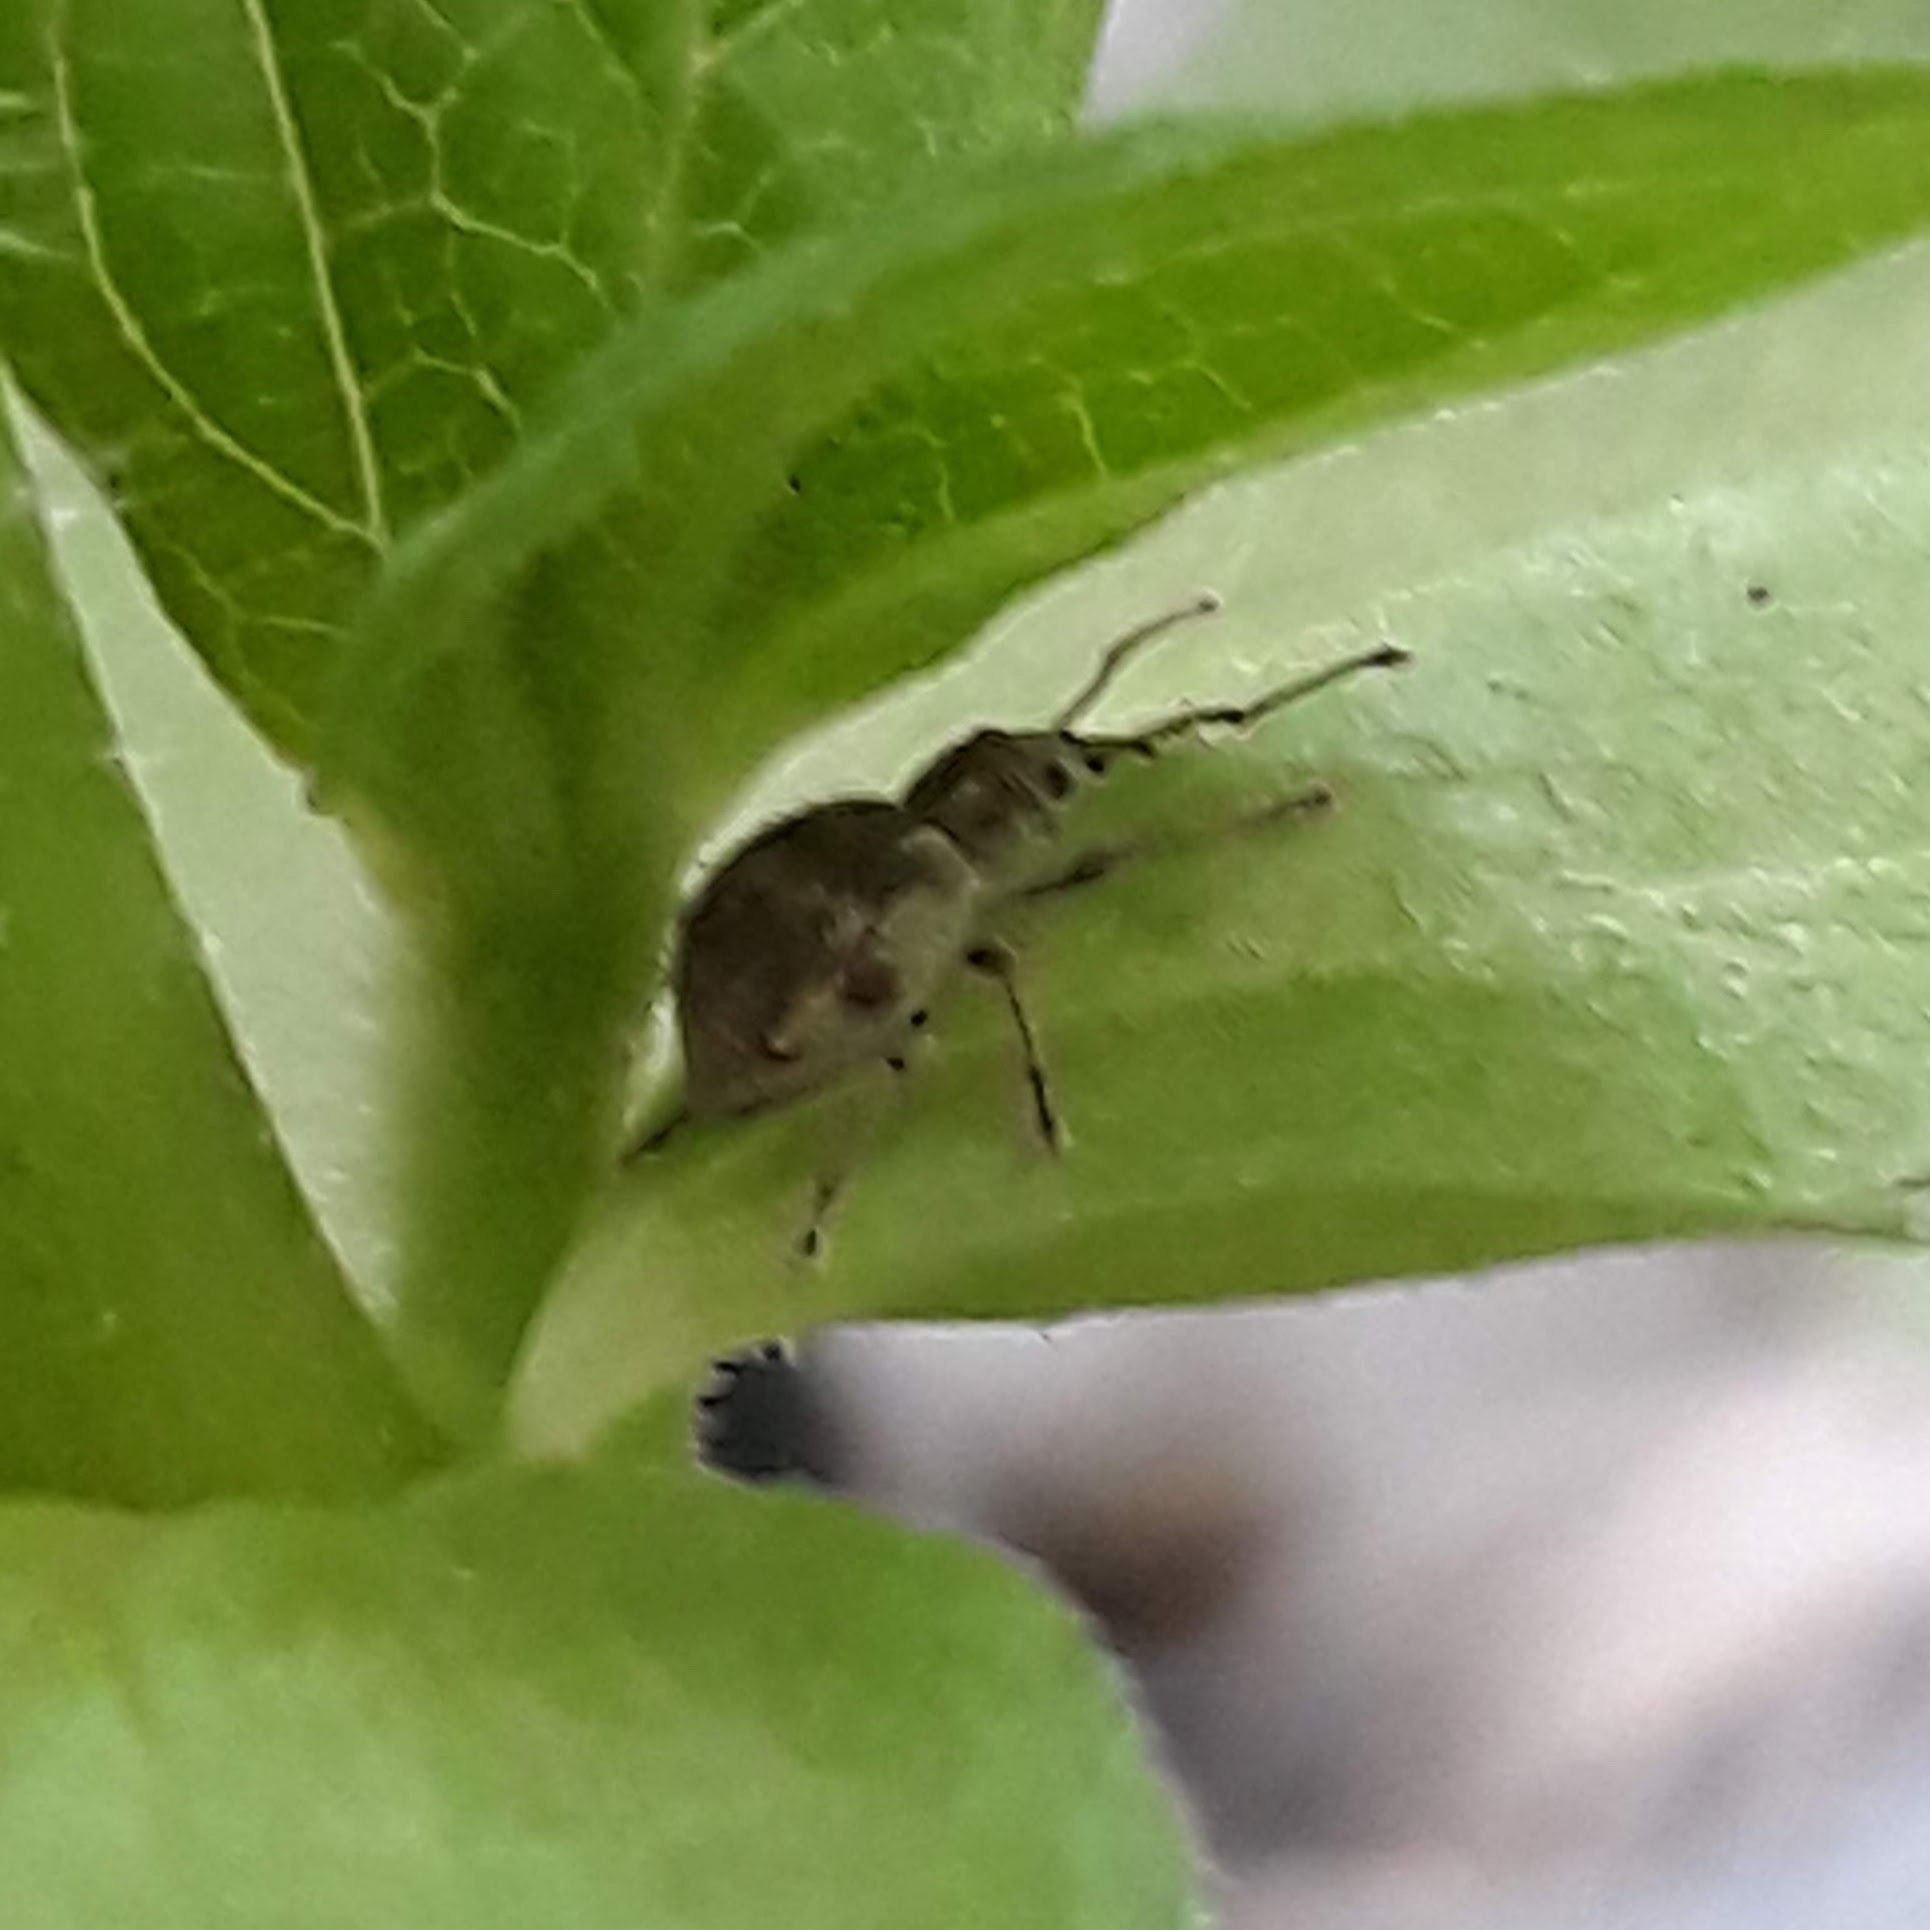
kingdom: Animalia
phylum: Arthropoda
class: Insecta
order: Coleoptera
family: Curculionidae
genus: Calomycterus
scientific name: Calomycterus setarius
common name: Weevil
